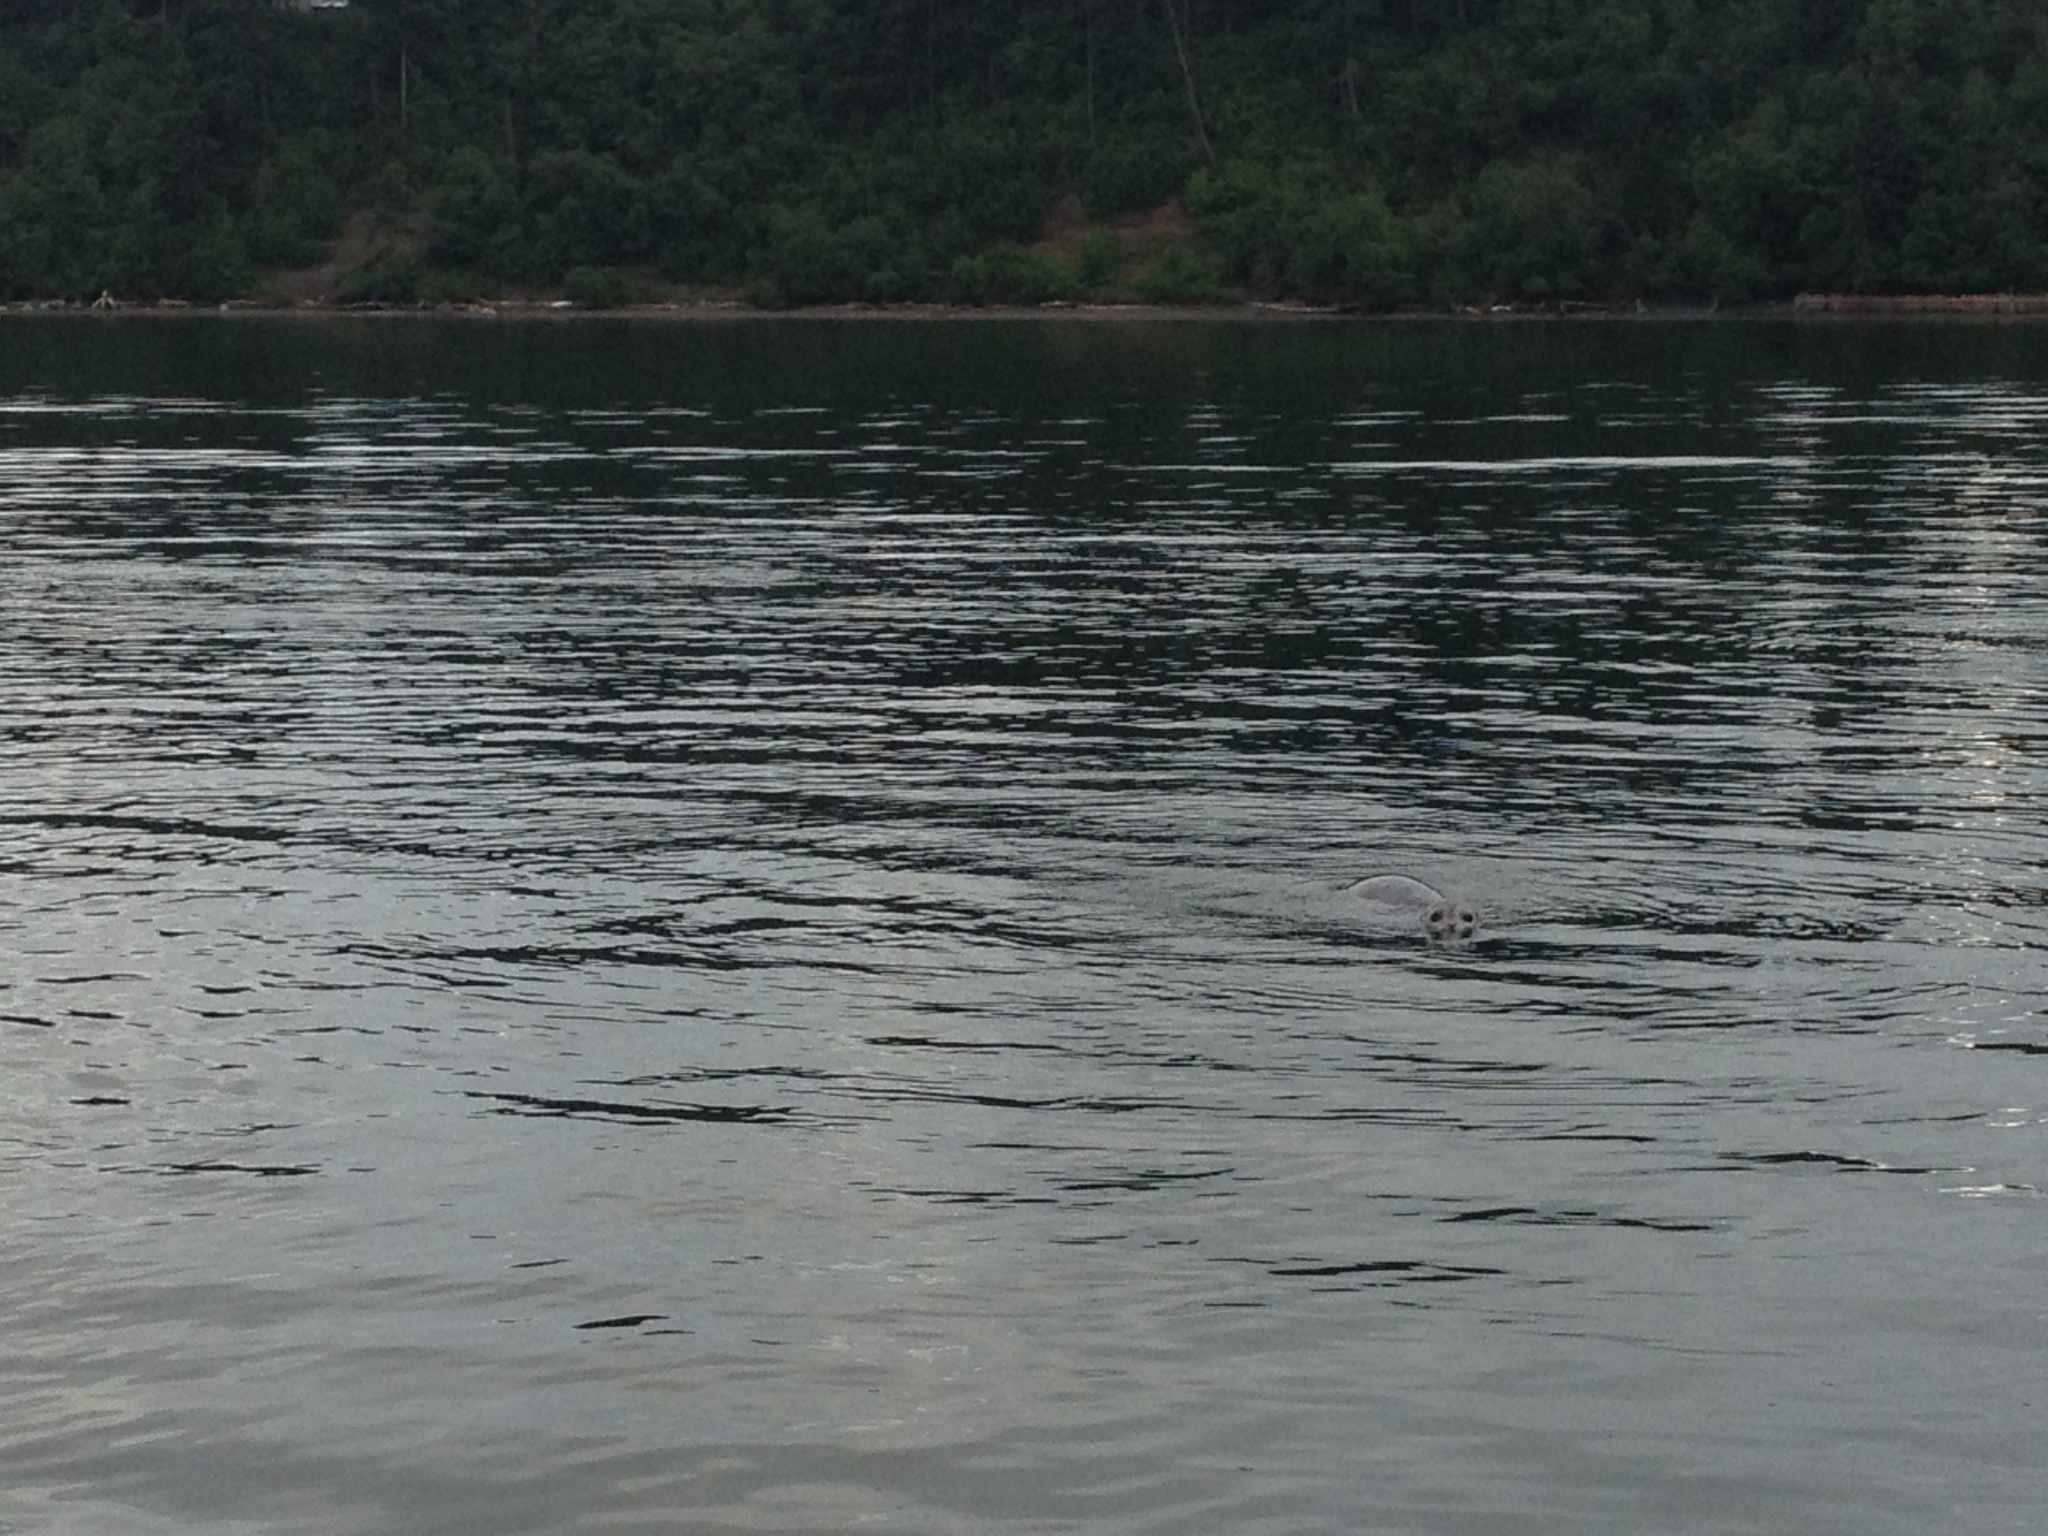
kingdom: Animalia
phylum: Chordata
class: Mammalia
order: Carnivora
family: Phocidae
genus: Phoca
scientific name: Phoca vitulina
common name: Harbor seal
